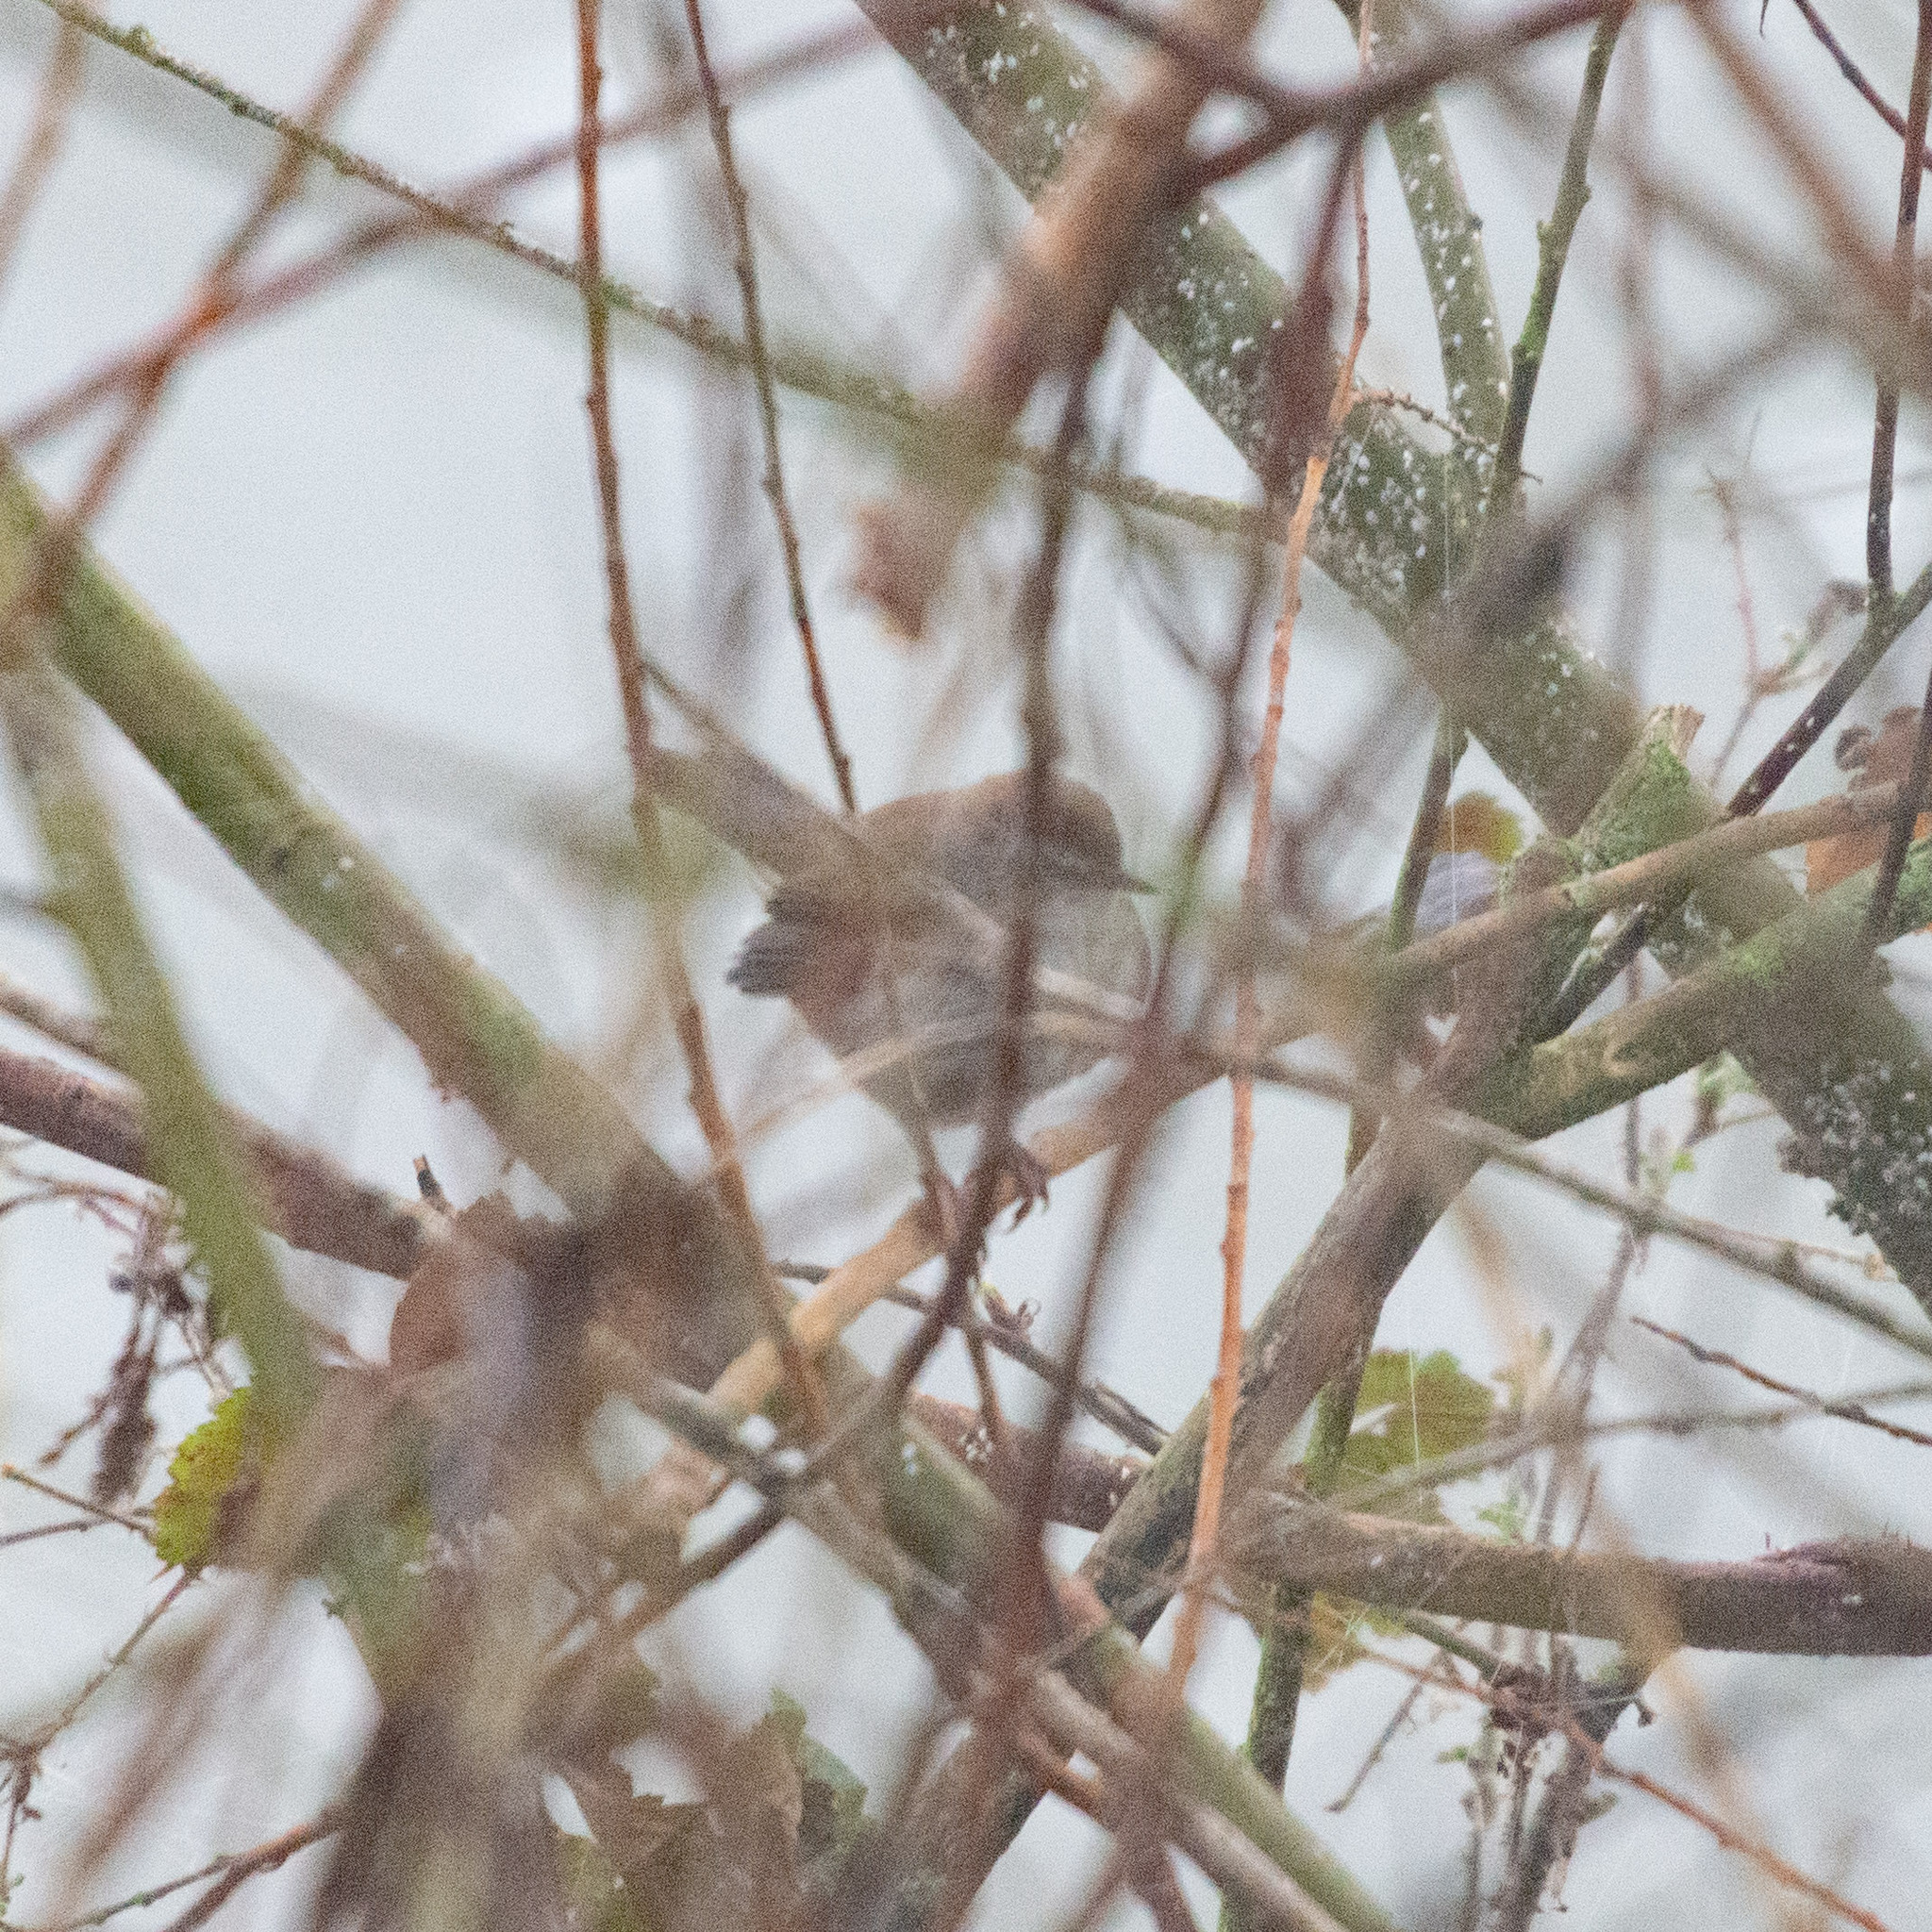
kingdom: Animalia
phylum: Chordata
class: Aves
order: Passeriformes
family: Cettiidae
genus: Cettia
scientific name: Cettia cetti
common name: Cetti's warbler
